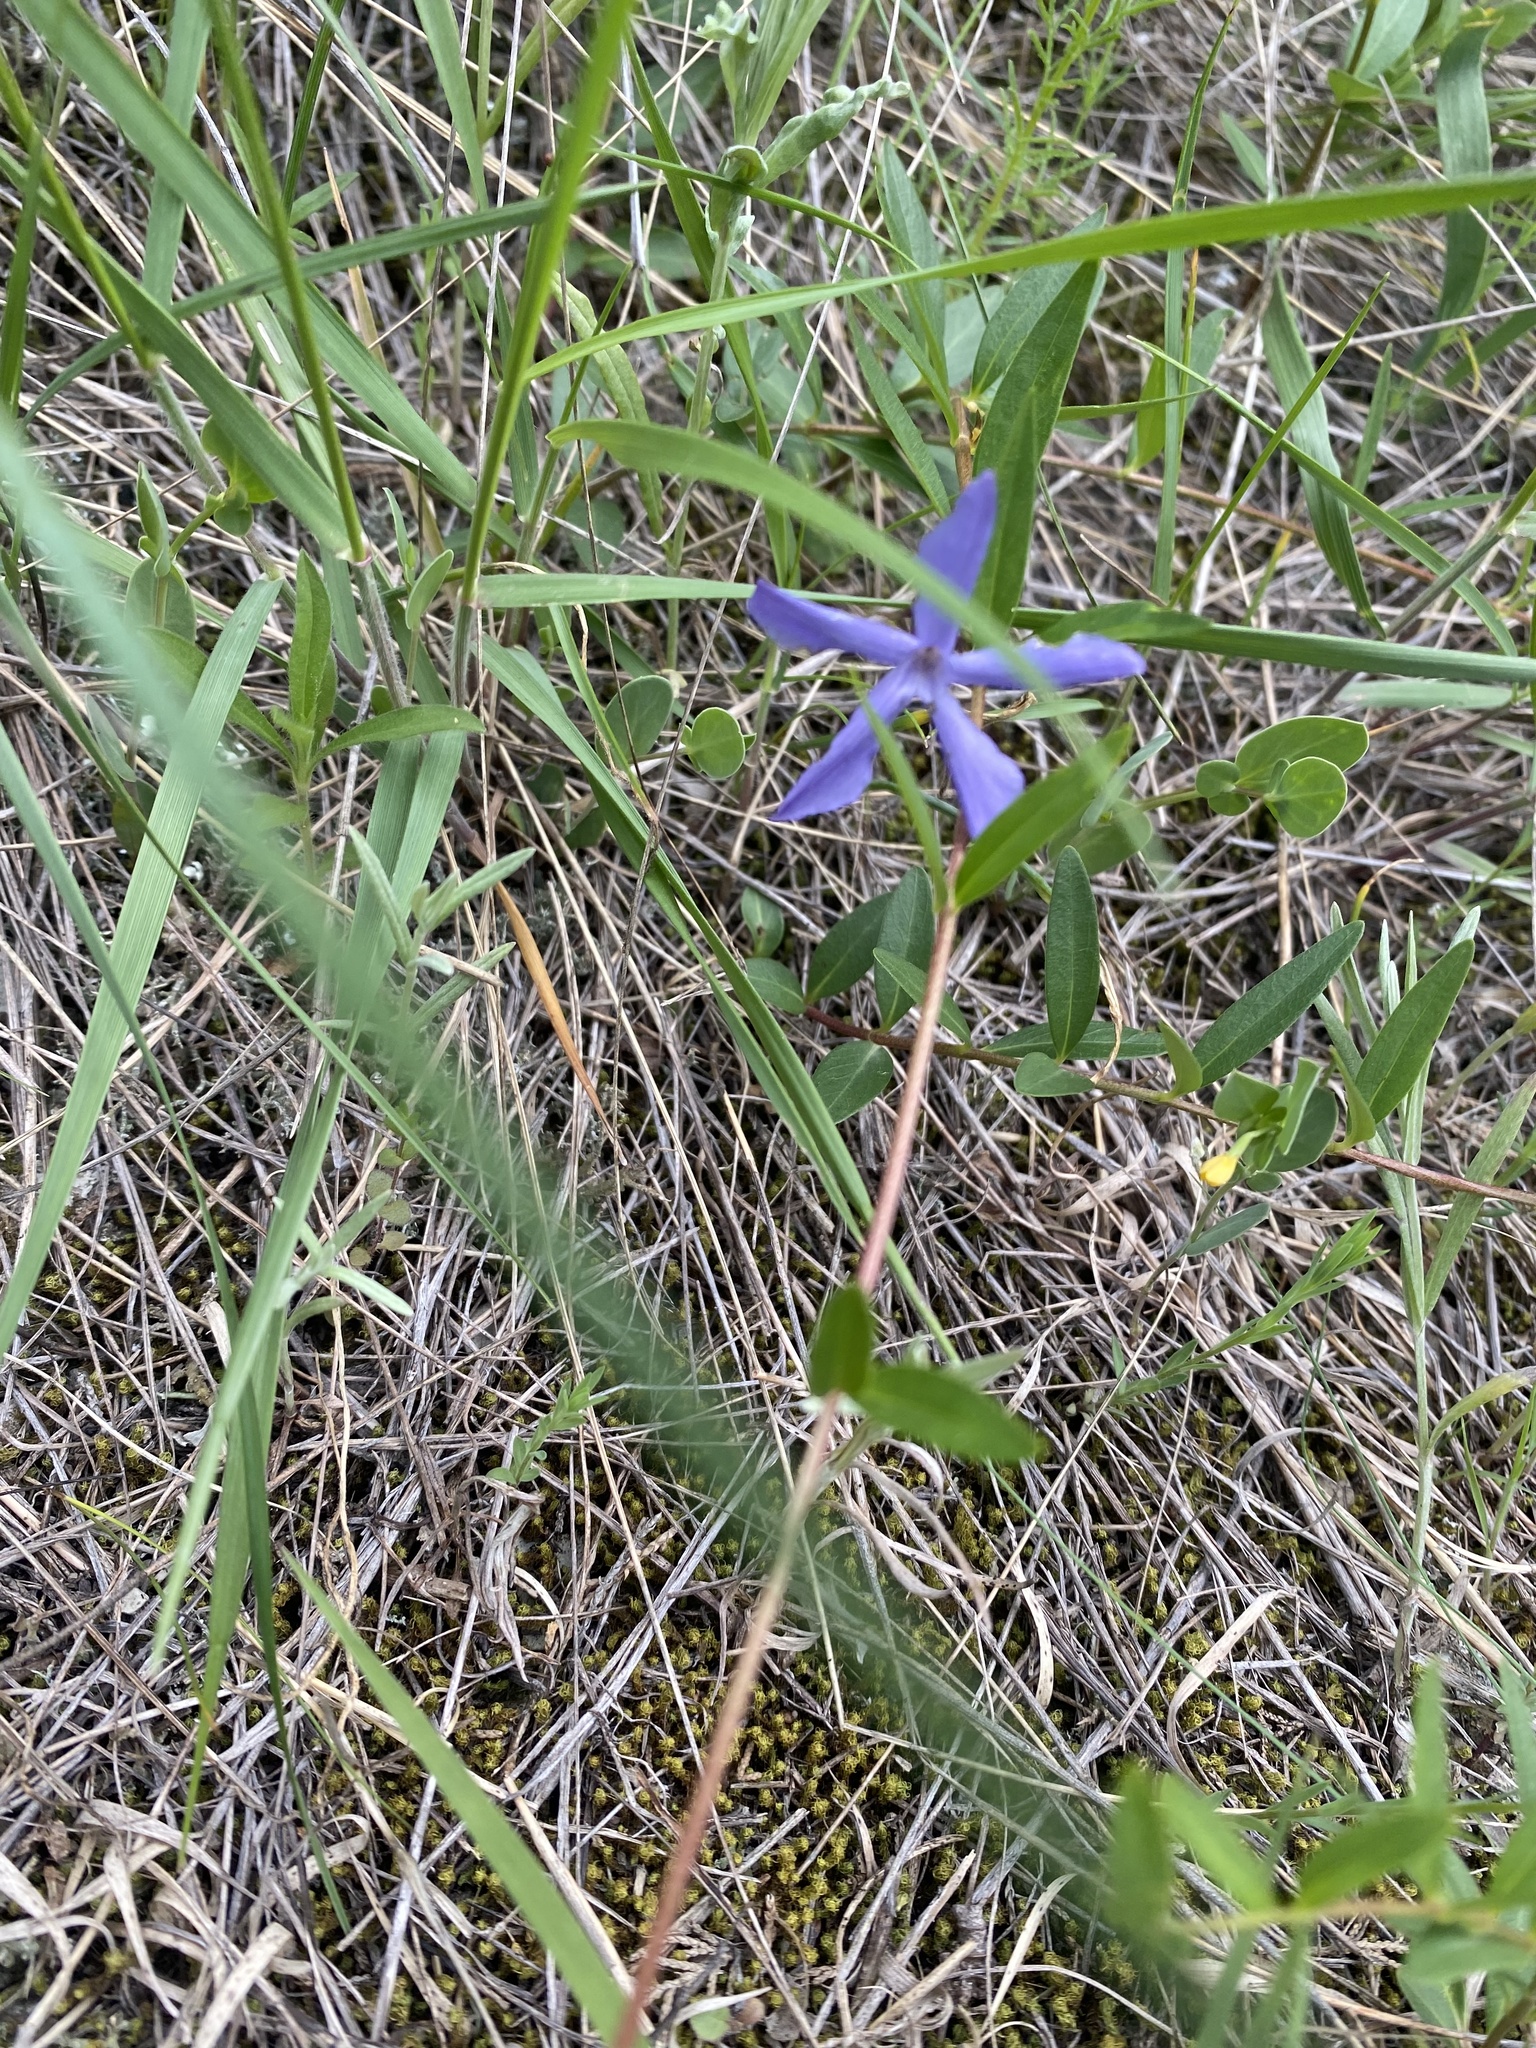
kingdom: Plantae
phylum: Tracheophyta
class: Magnoliopsida
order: Gentianales
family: Apocynaceae
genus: Vinca
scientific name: Vinca herbacea
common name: Herbaceous periwinkle
